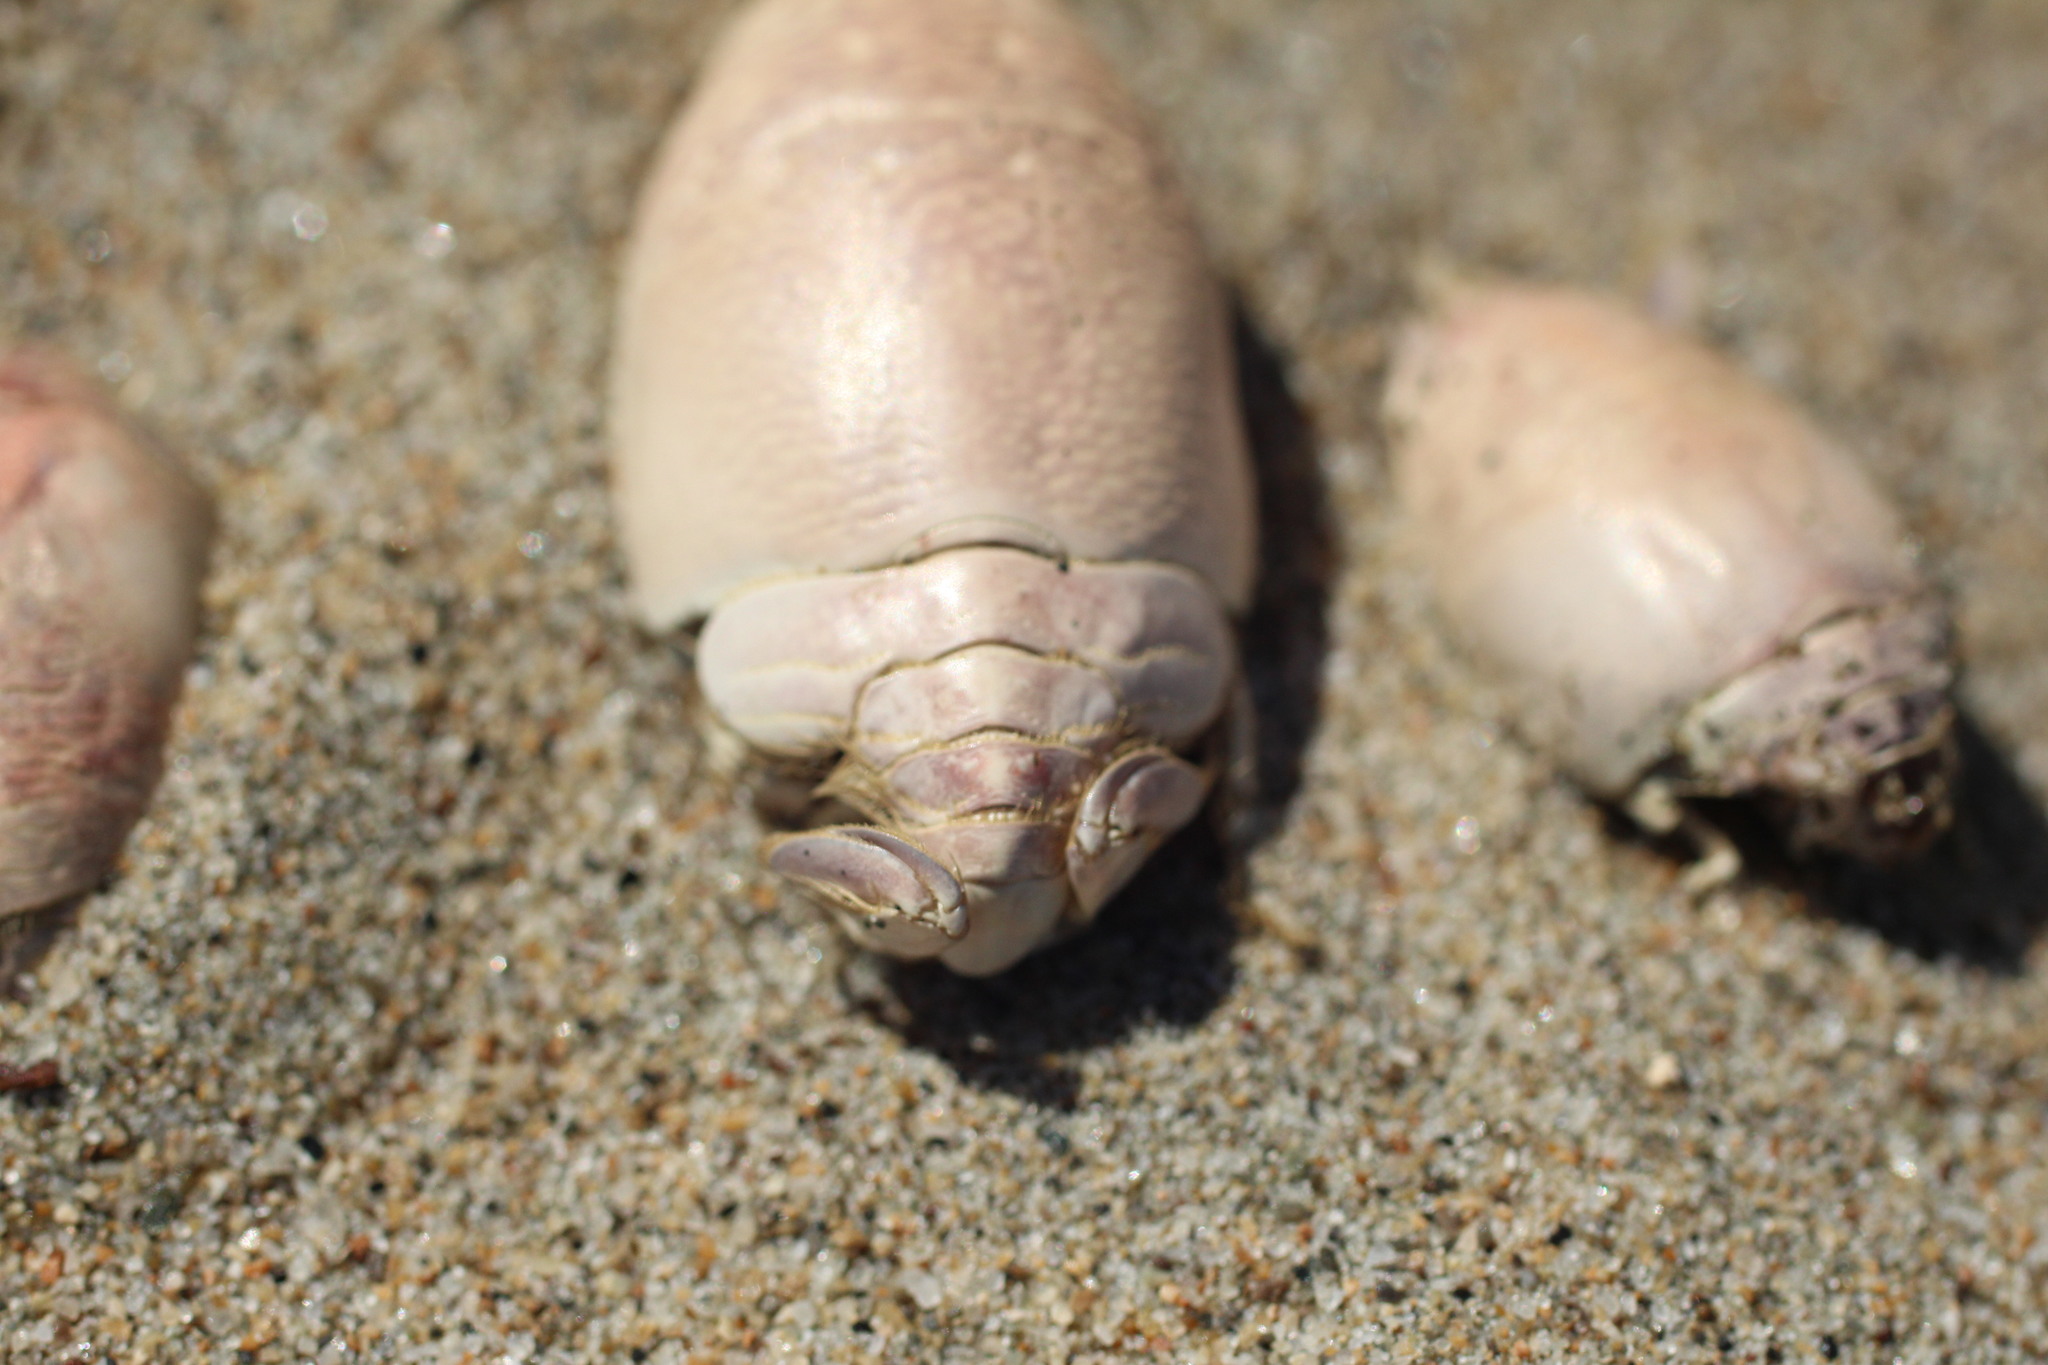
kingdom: Animalia
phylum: Arthropoda
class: Malacostraca
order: Decapoda
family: Hippidae
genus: Emerita
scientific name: Emerita analoga
